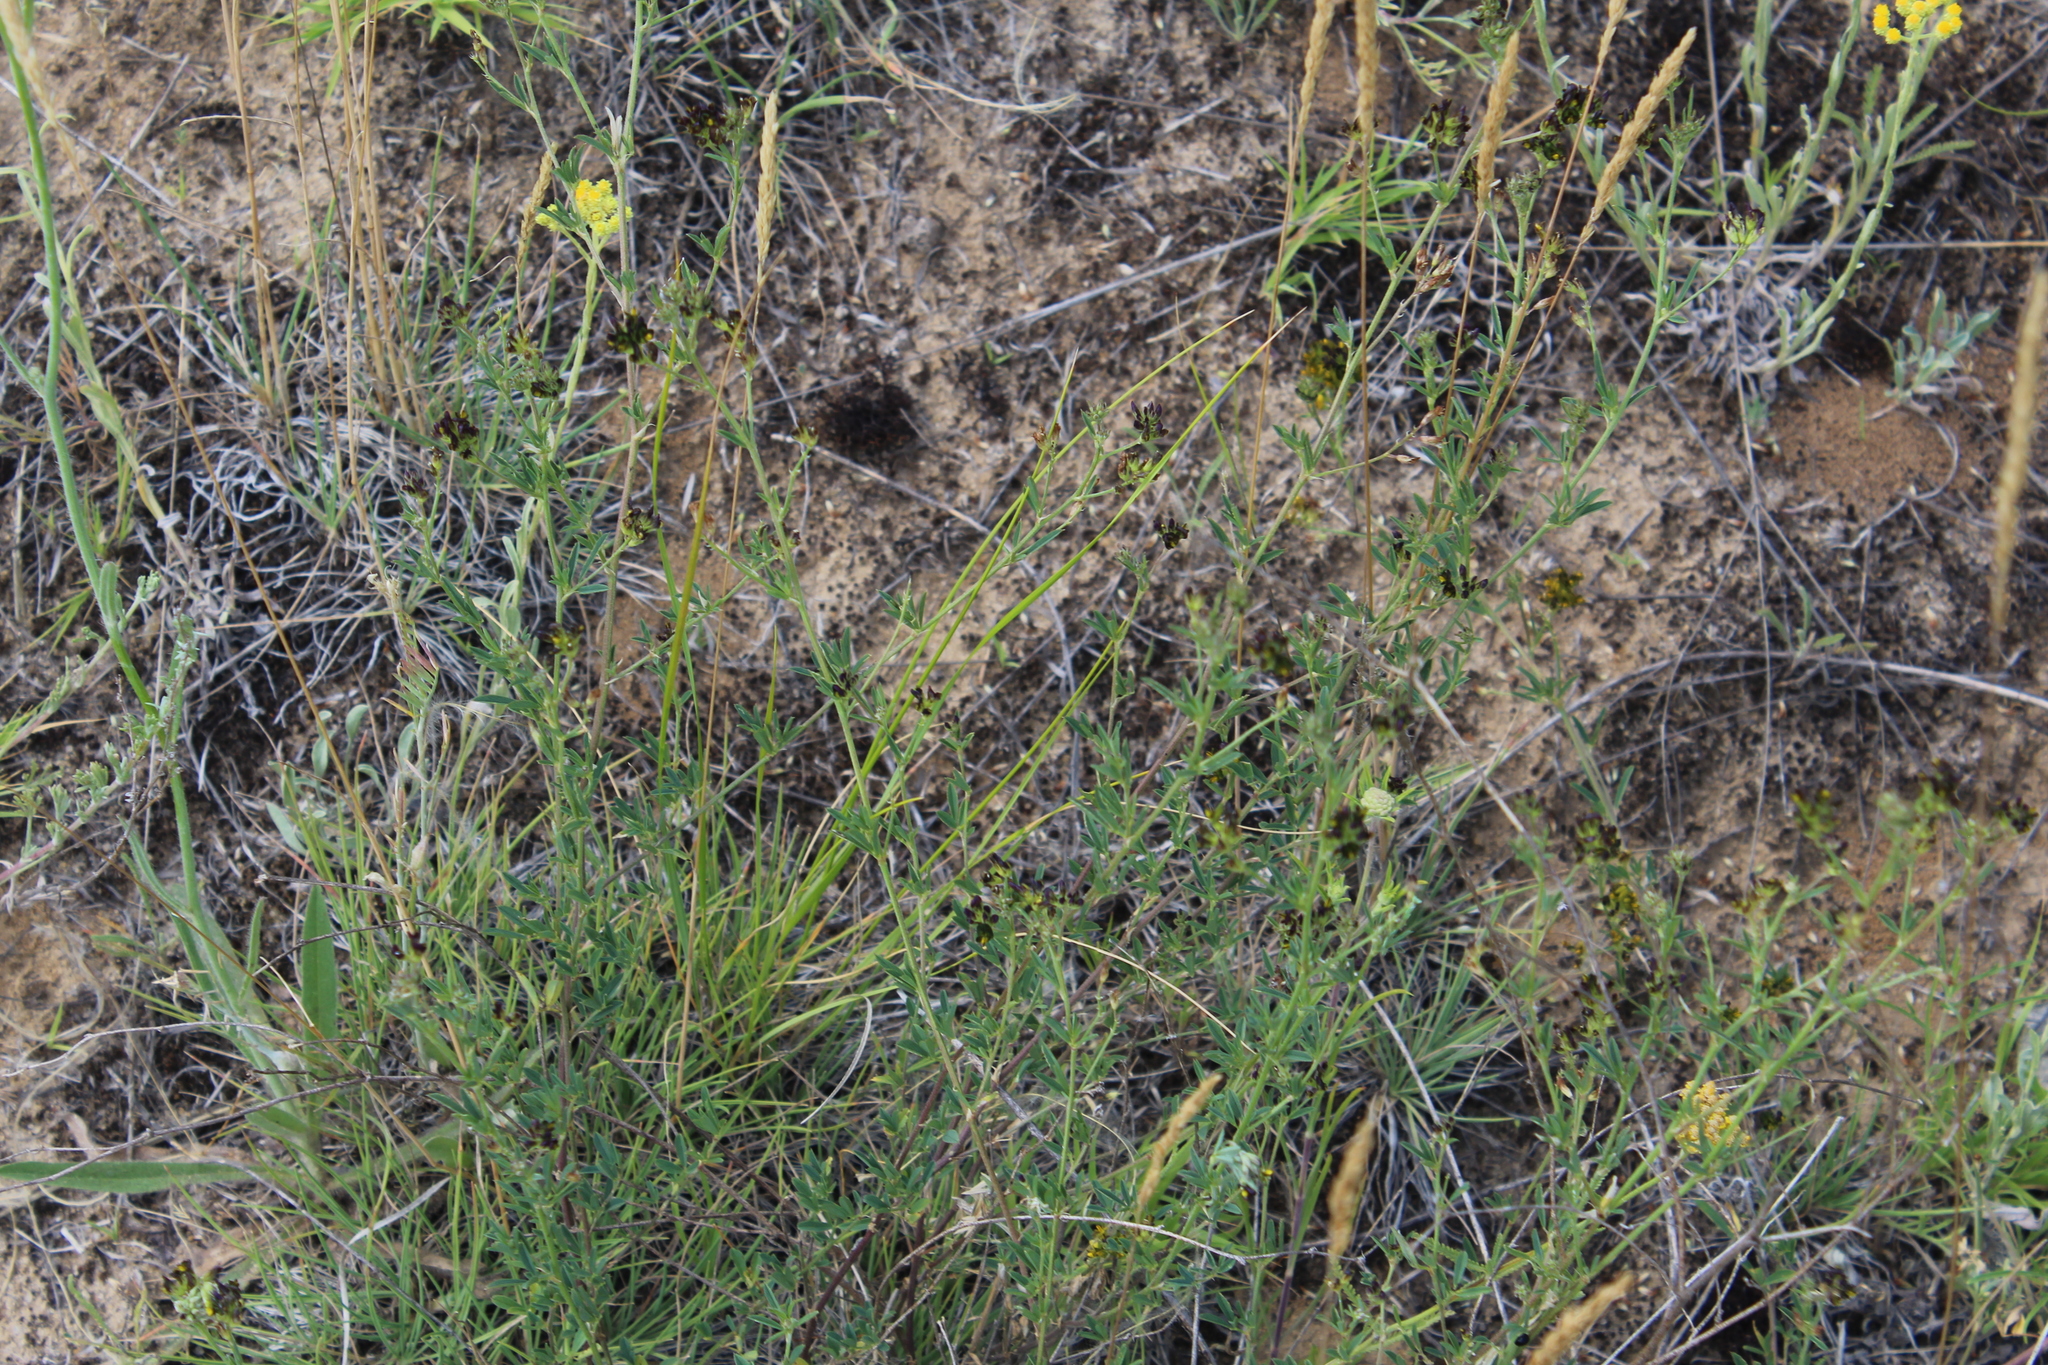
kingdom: Plantae
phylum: Tracheophyta
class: Magnoliopsida
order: Fabales
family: Fabaceae
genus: Medicago
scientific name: Medicago varia
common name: Sand lucerne
